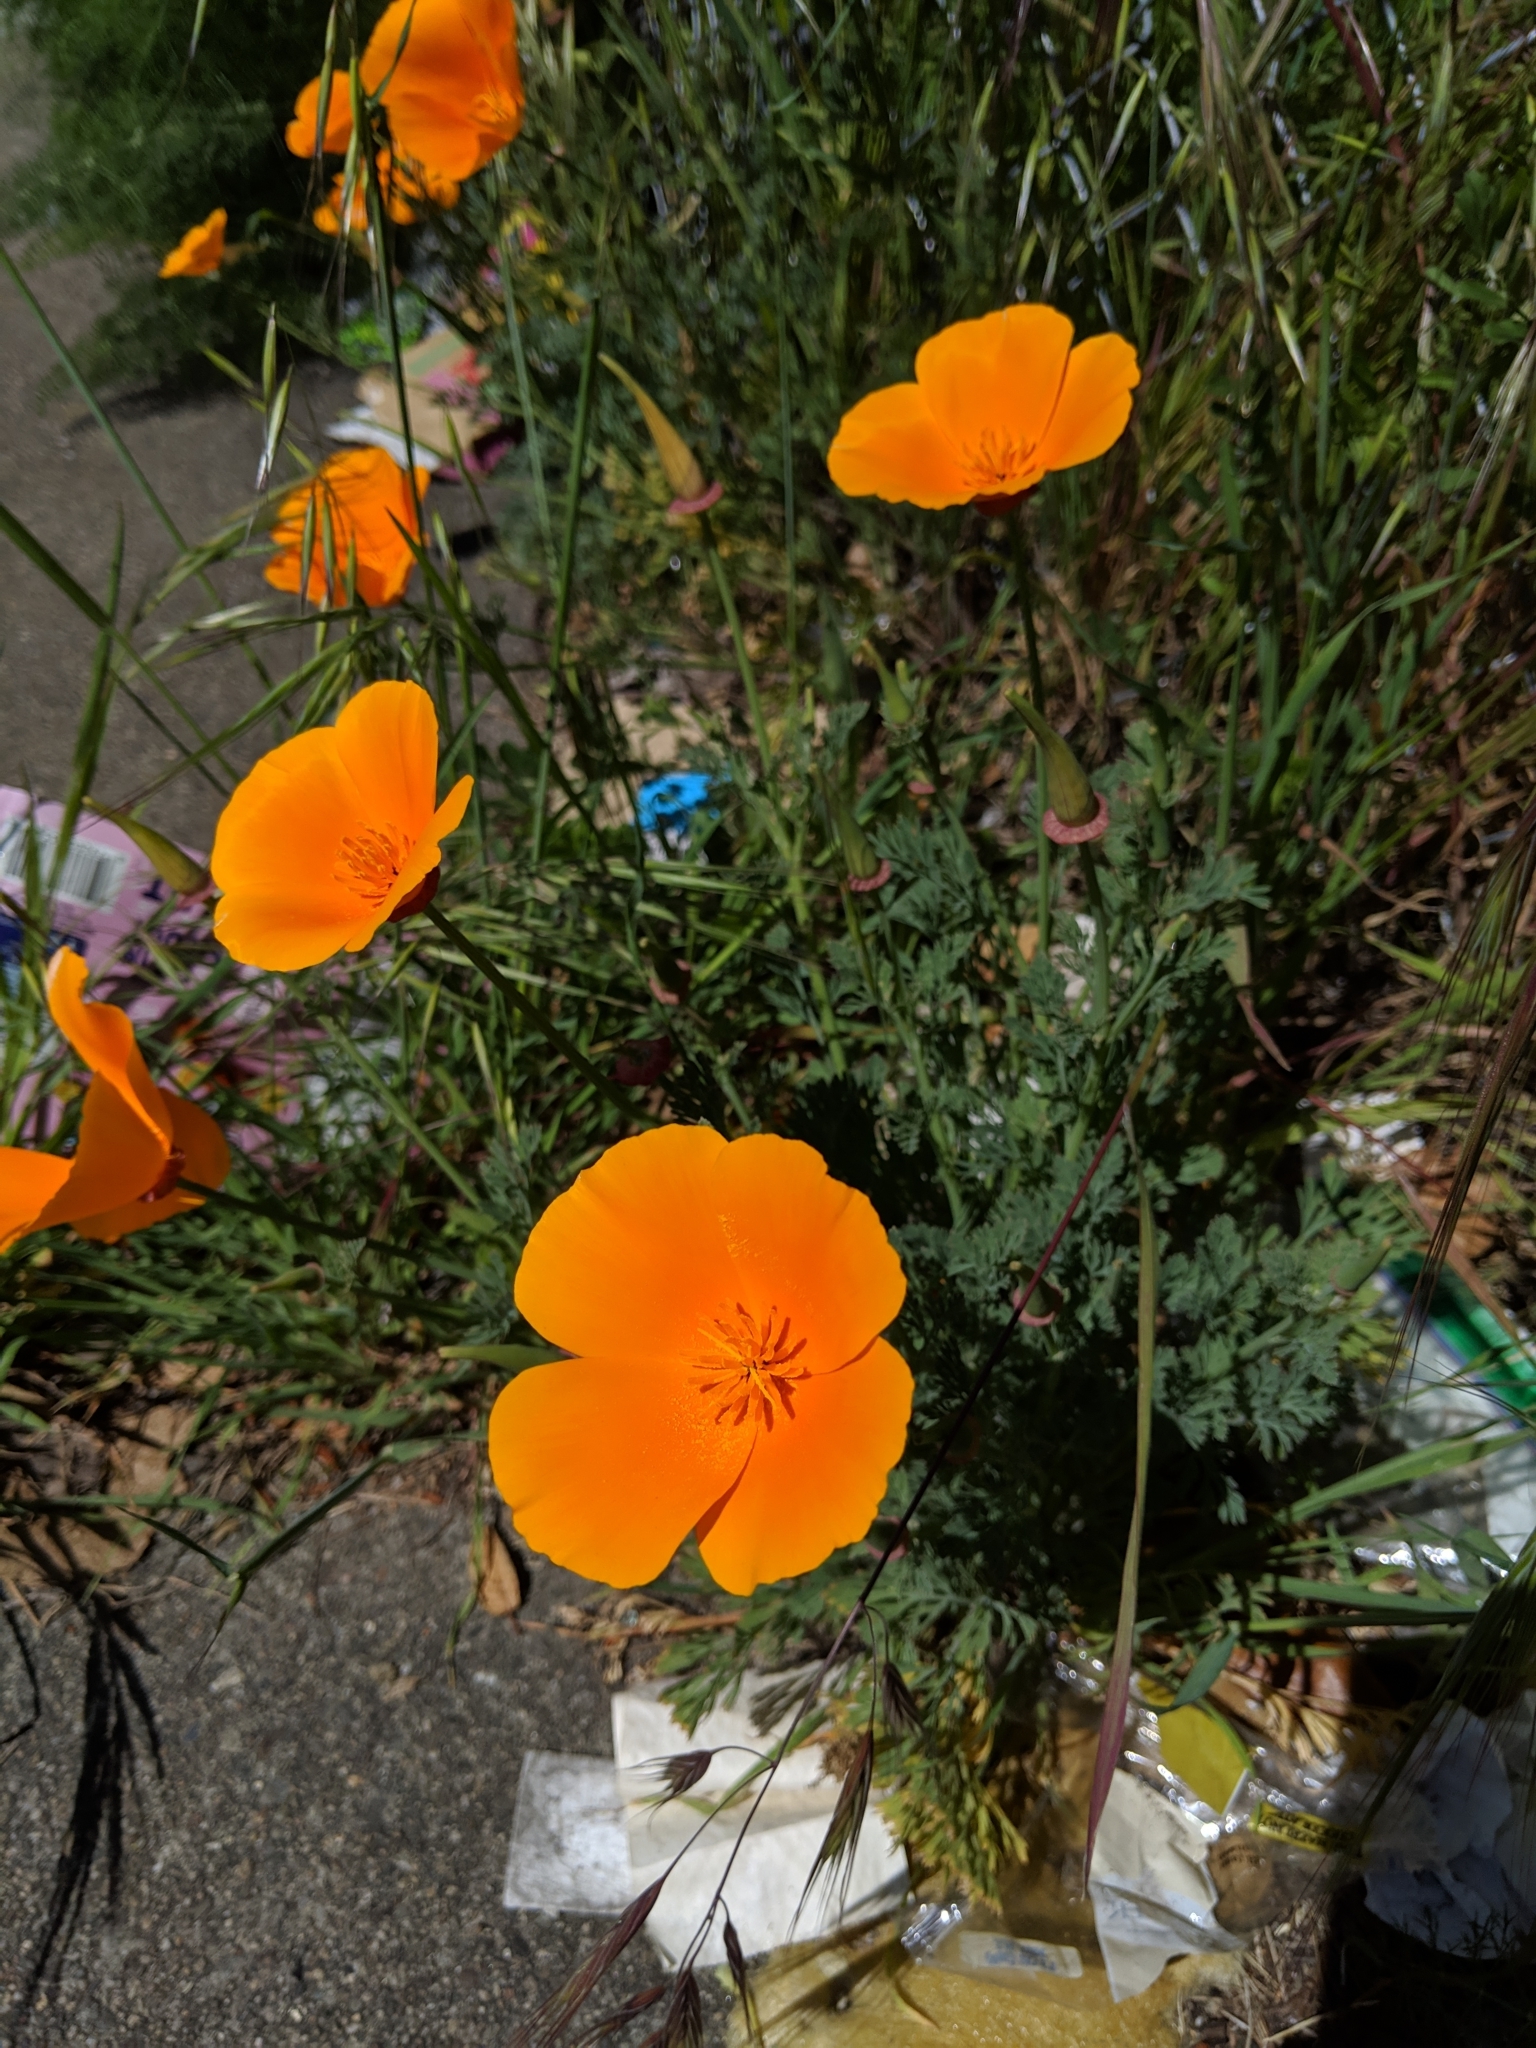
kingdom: Plantae
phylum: Tracheophyta
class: Magnoliopsida
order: Ranunculales
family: Papaveraceae
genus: Eschscholzia
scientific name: Eschscholzia californica
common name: California poppy
